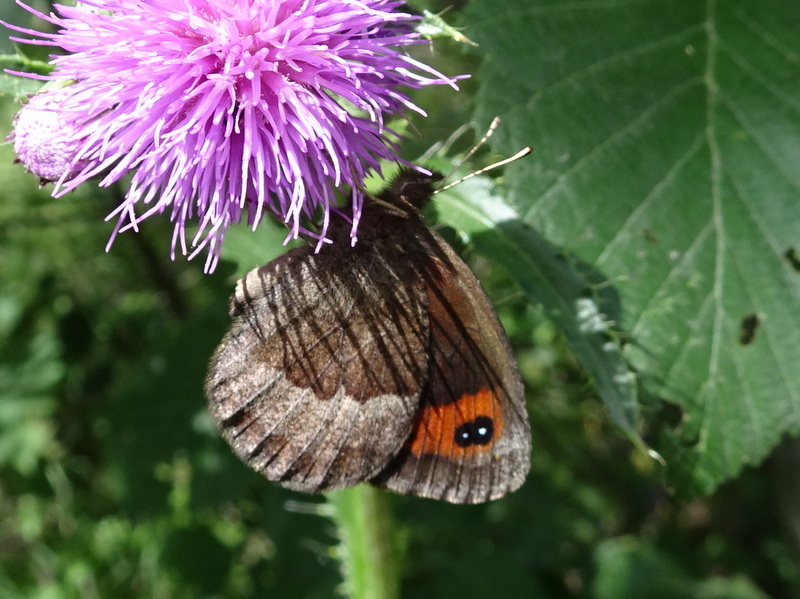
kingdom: Animalia
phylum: Arthropoda
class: Insecta
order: Lepidoptera
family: Nymphalidae
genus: Erebia
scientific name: Erebia neoridas
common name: Autumn ringlet
